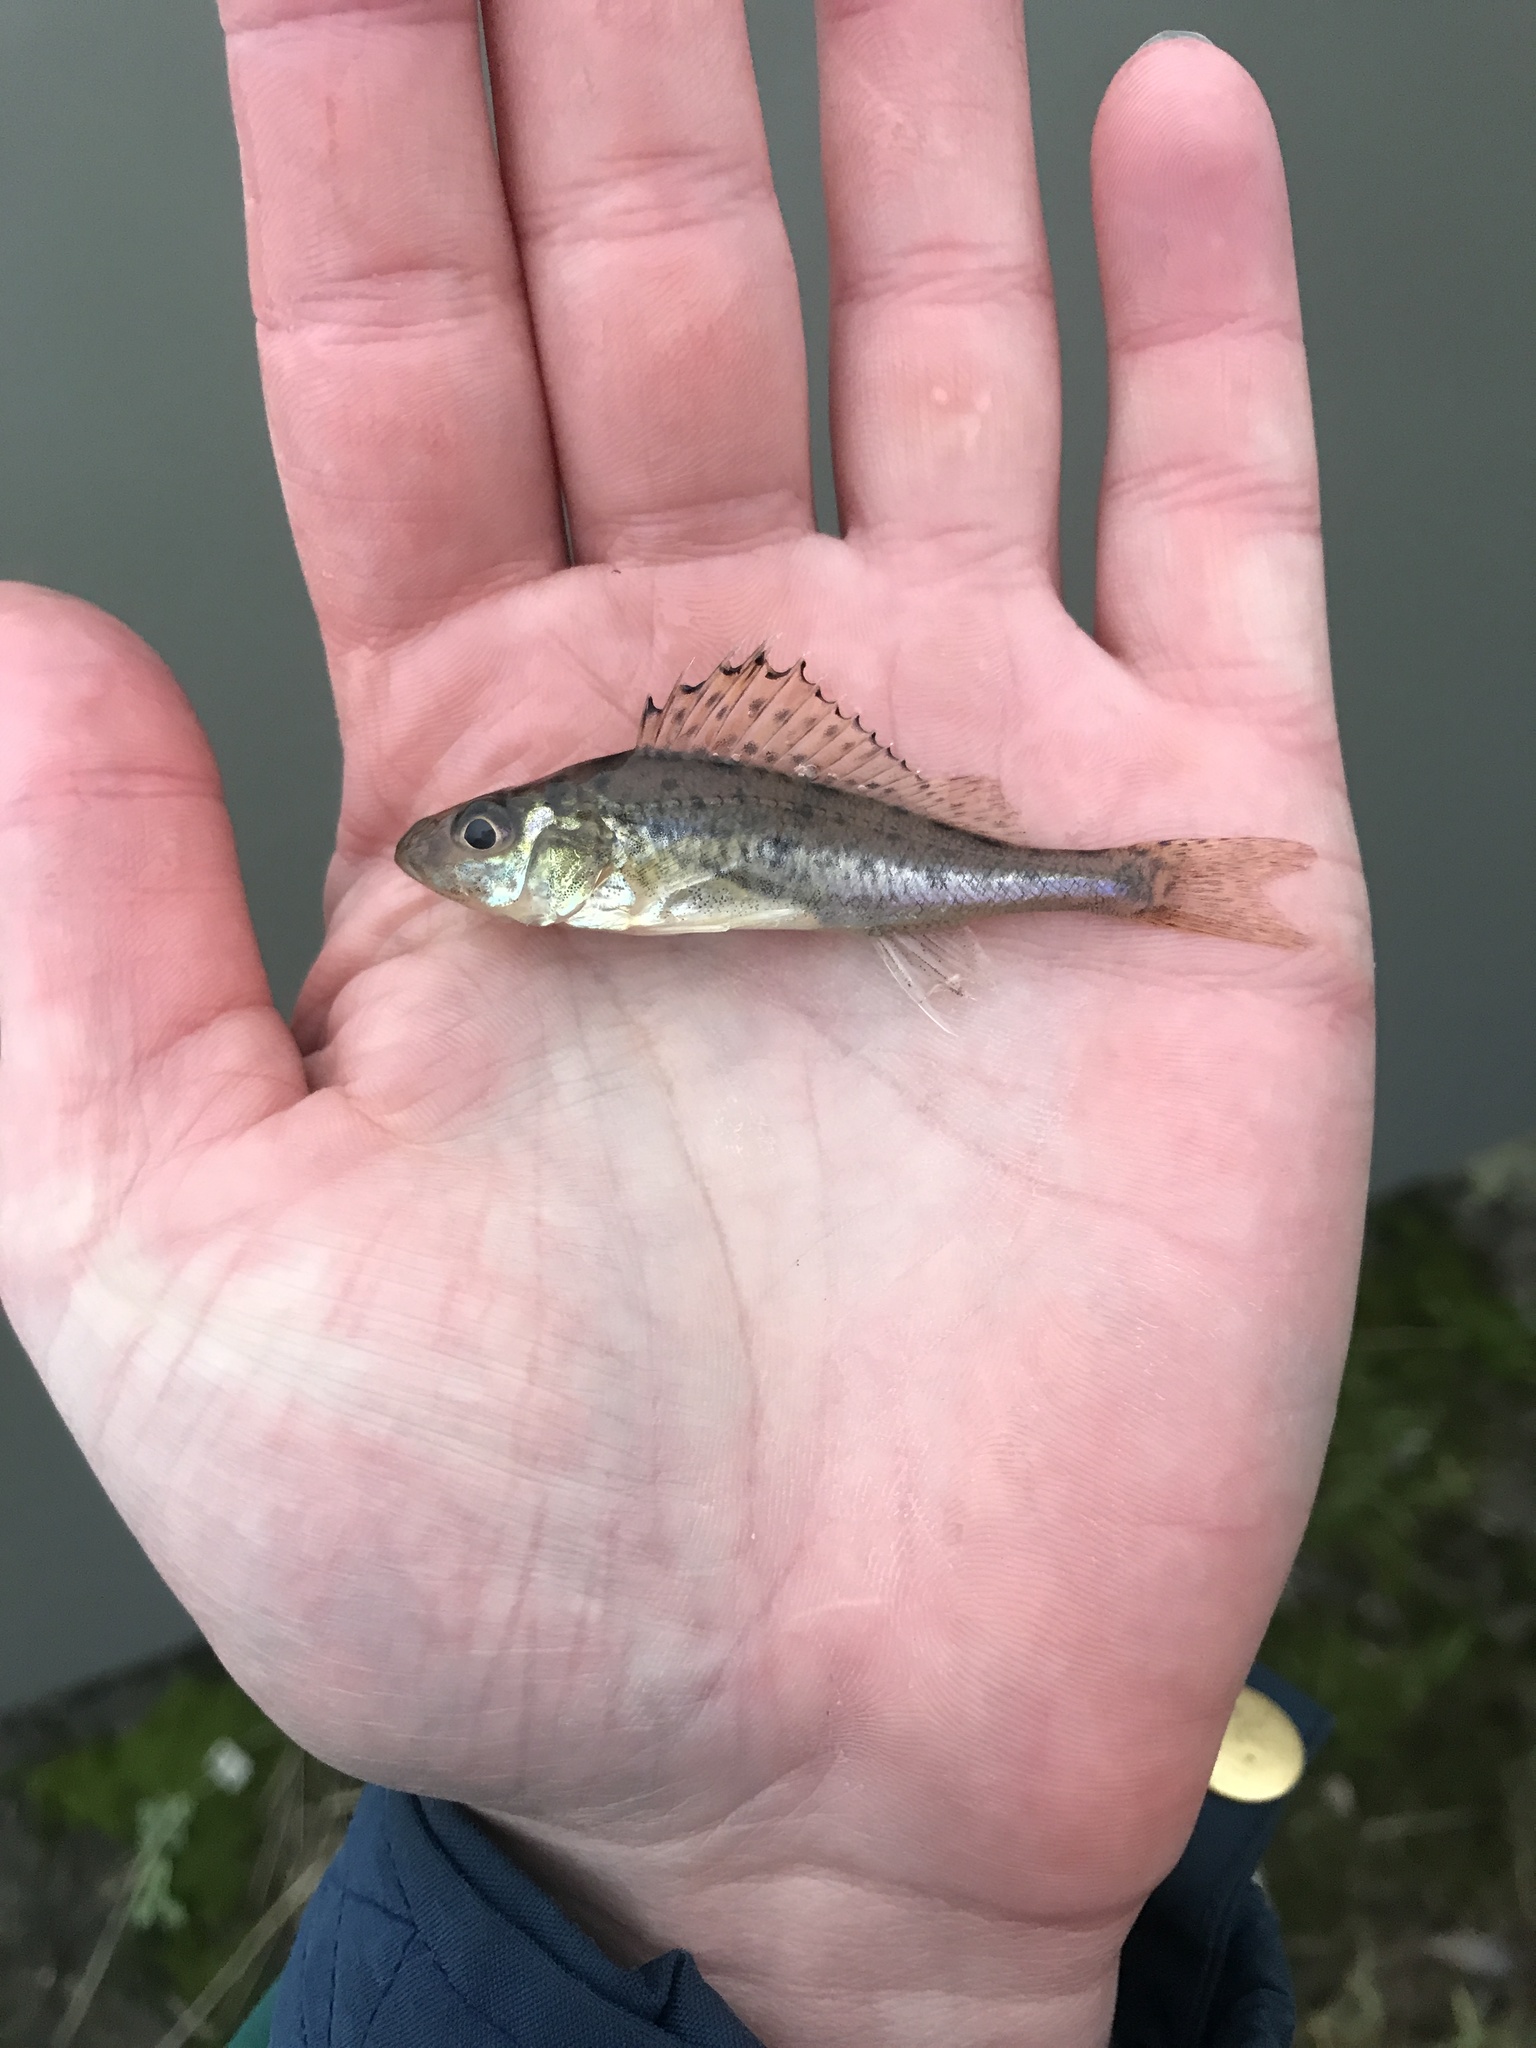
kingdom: Animalia
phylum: Chordata
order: Perciformes
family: Percidae
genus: Gymnocephalus
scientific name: Gymnocephalus cernua
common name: Ruffe
